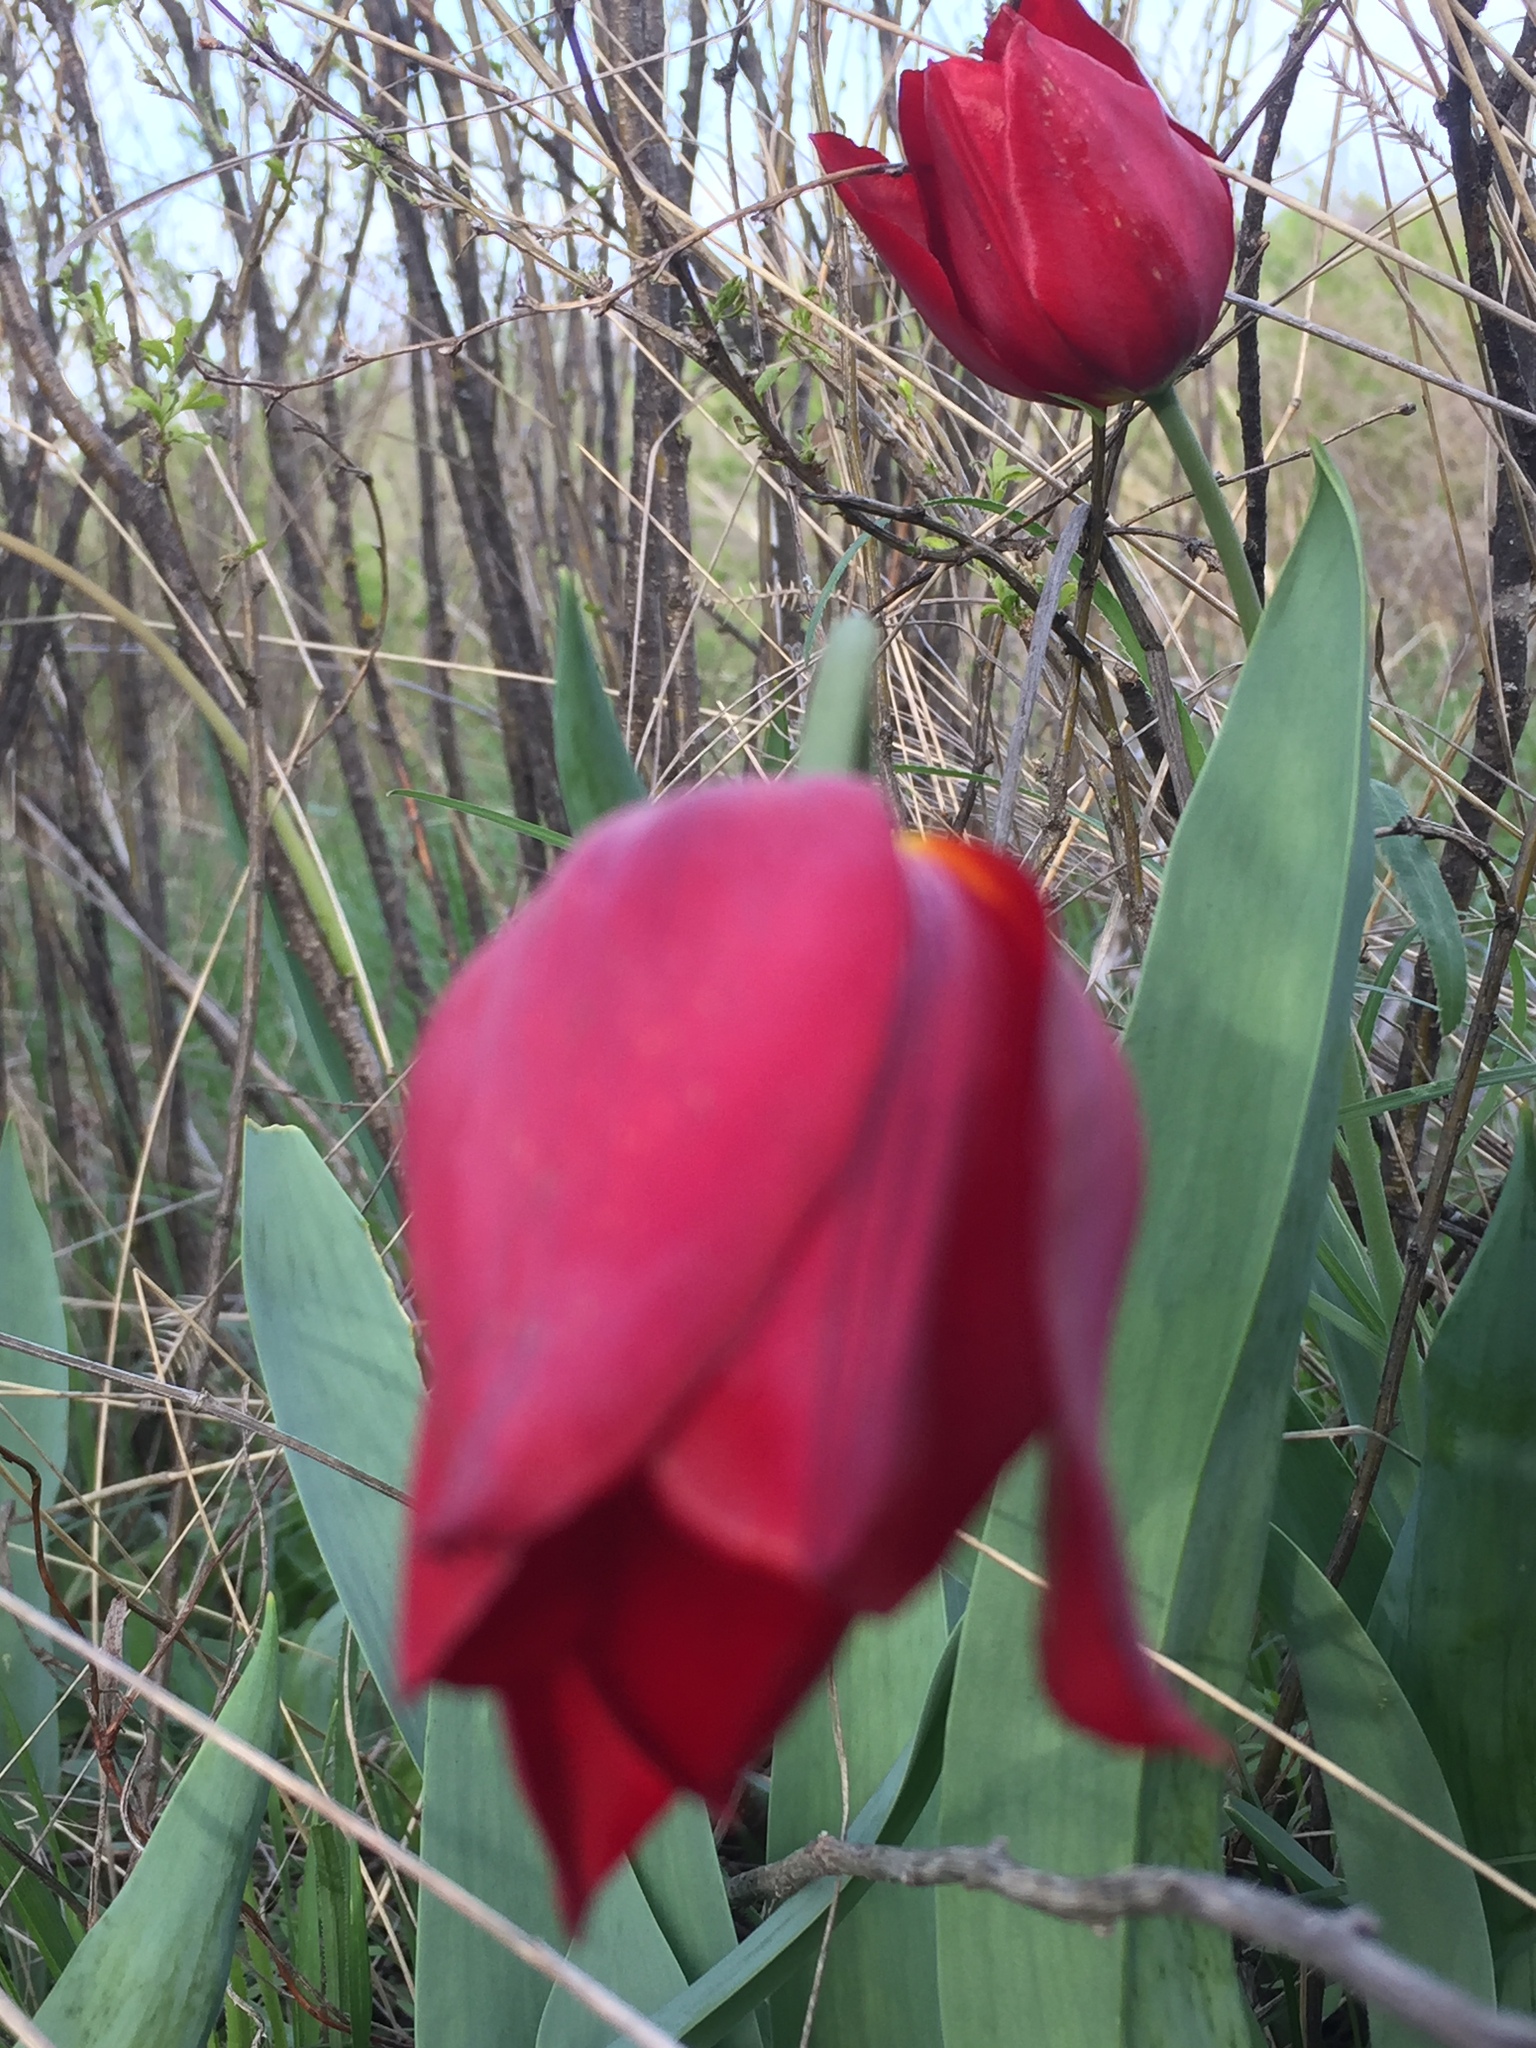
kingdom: Plantae
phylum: Tracheophyta
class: Liliopsida
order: Liliales
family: Liliaceae
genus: Tulipa
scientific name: Tulipa suaveolens
